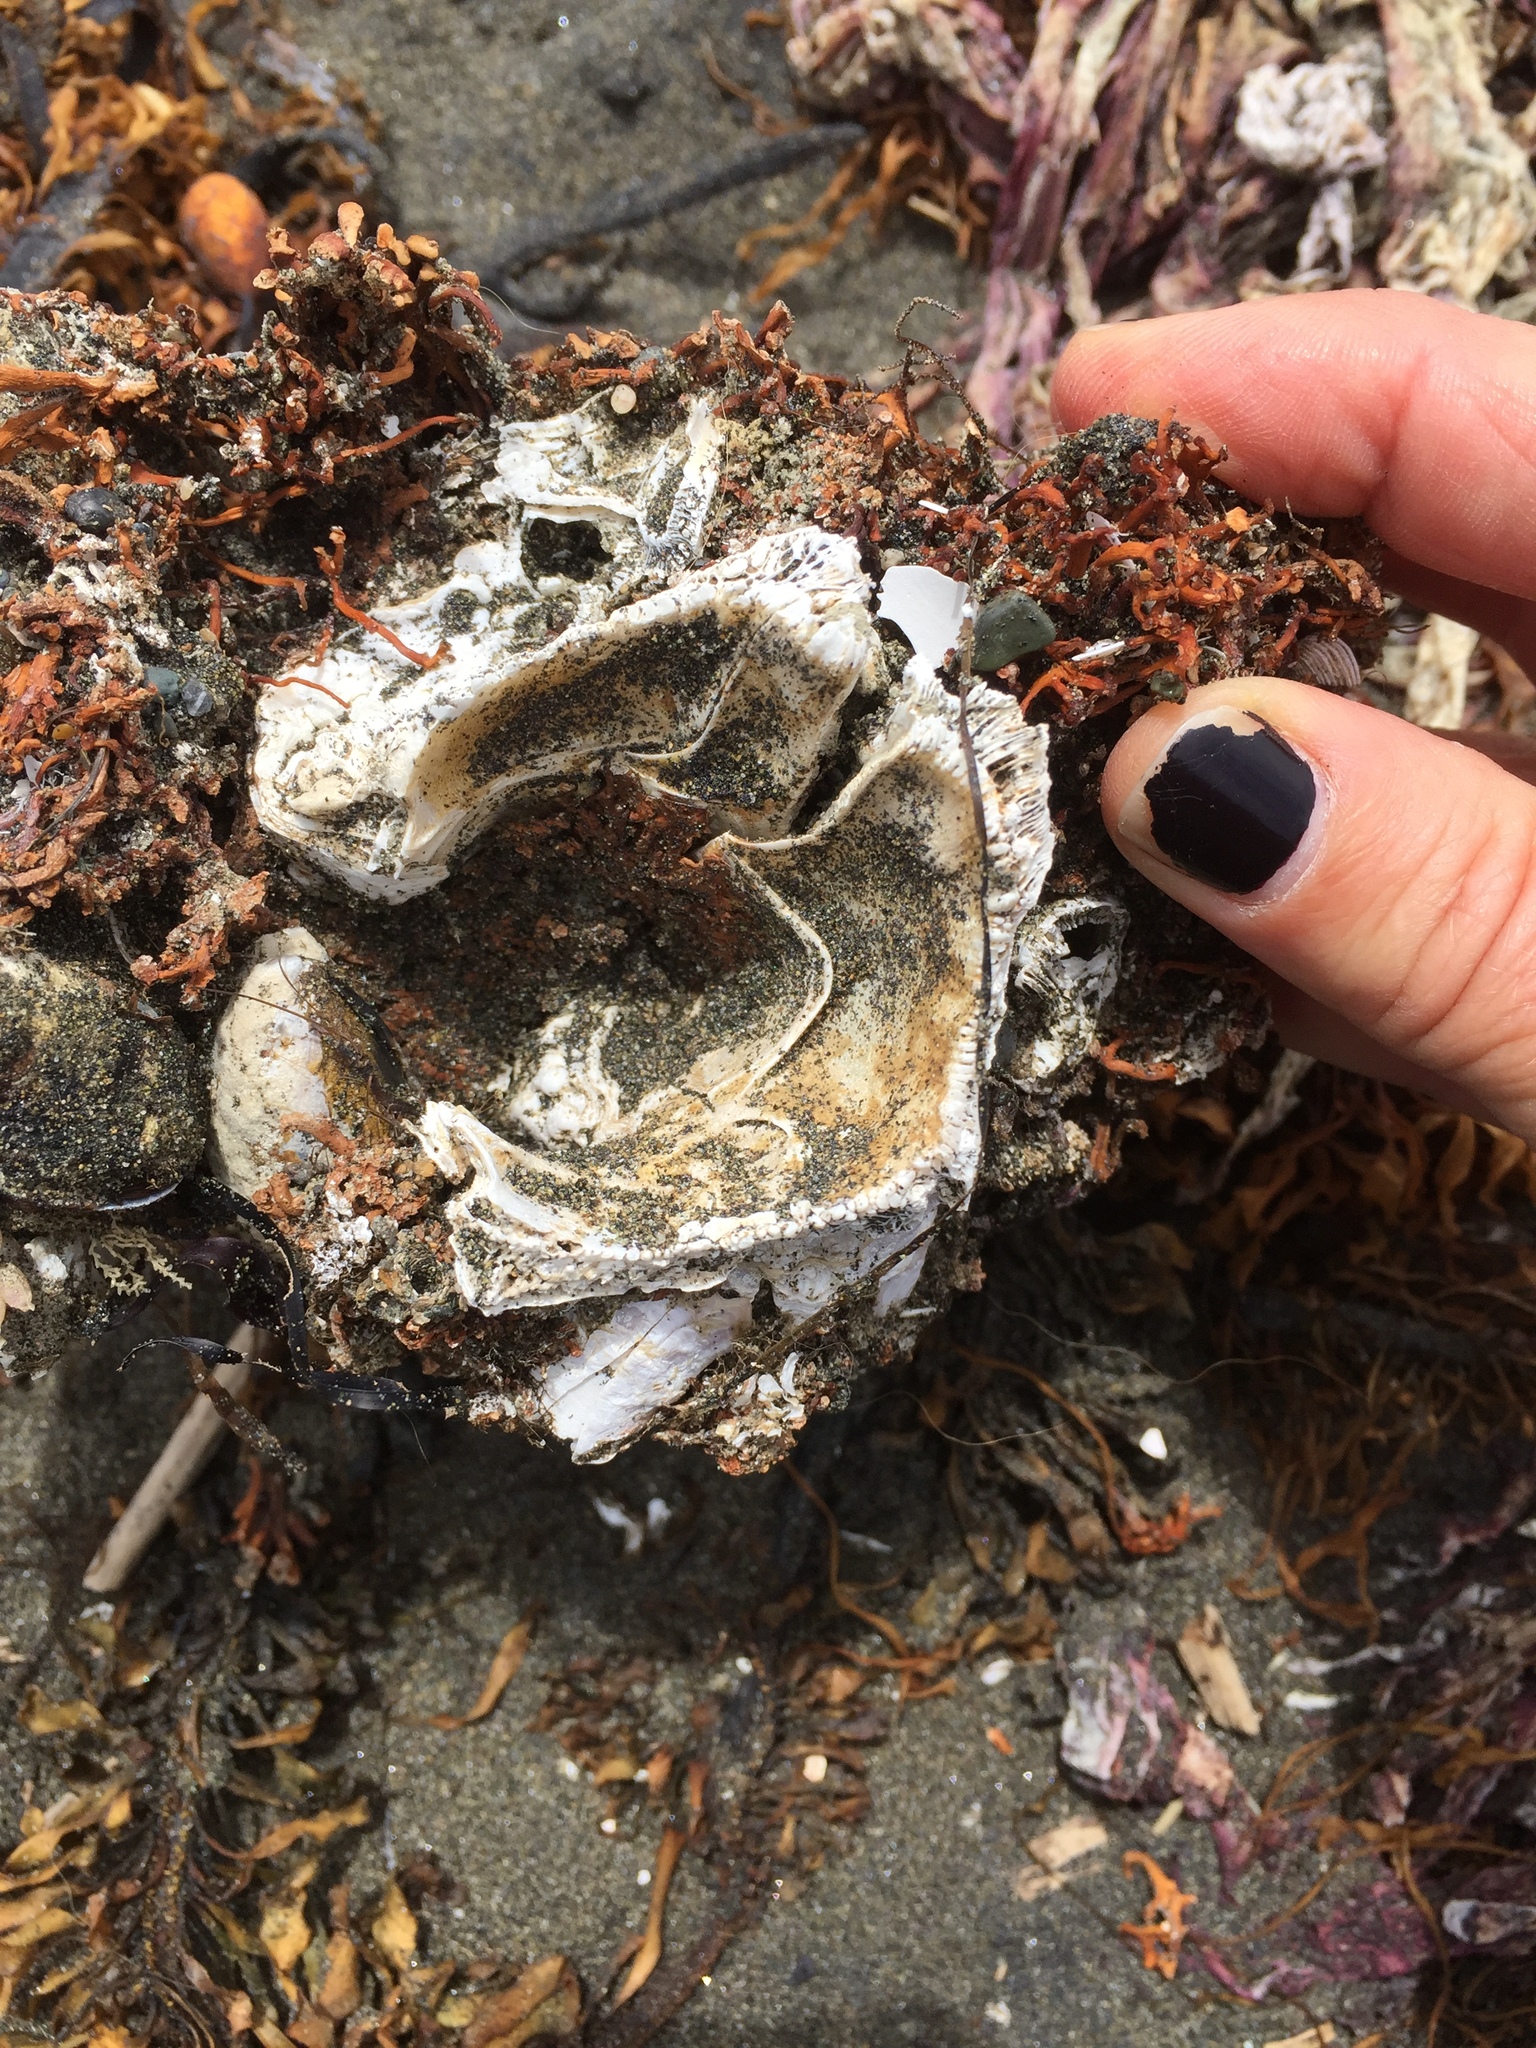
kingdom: Animalia
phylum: Arthropoda
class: Maxillopoda
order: Sessilia
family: Balanidae
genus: Balanus
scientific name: Balanus nubilus
